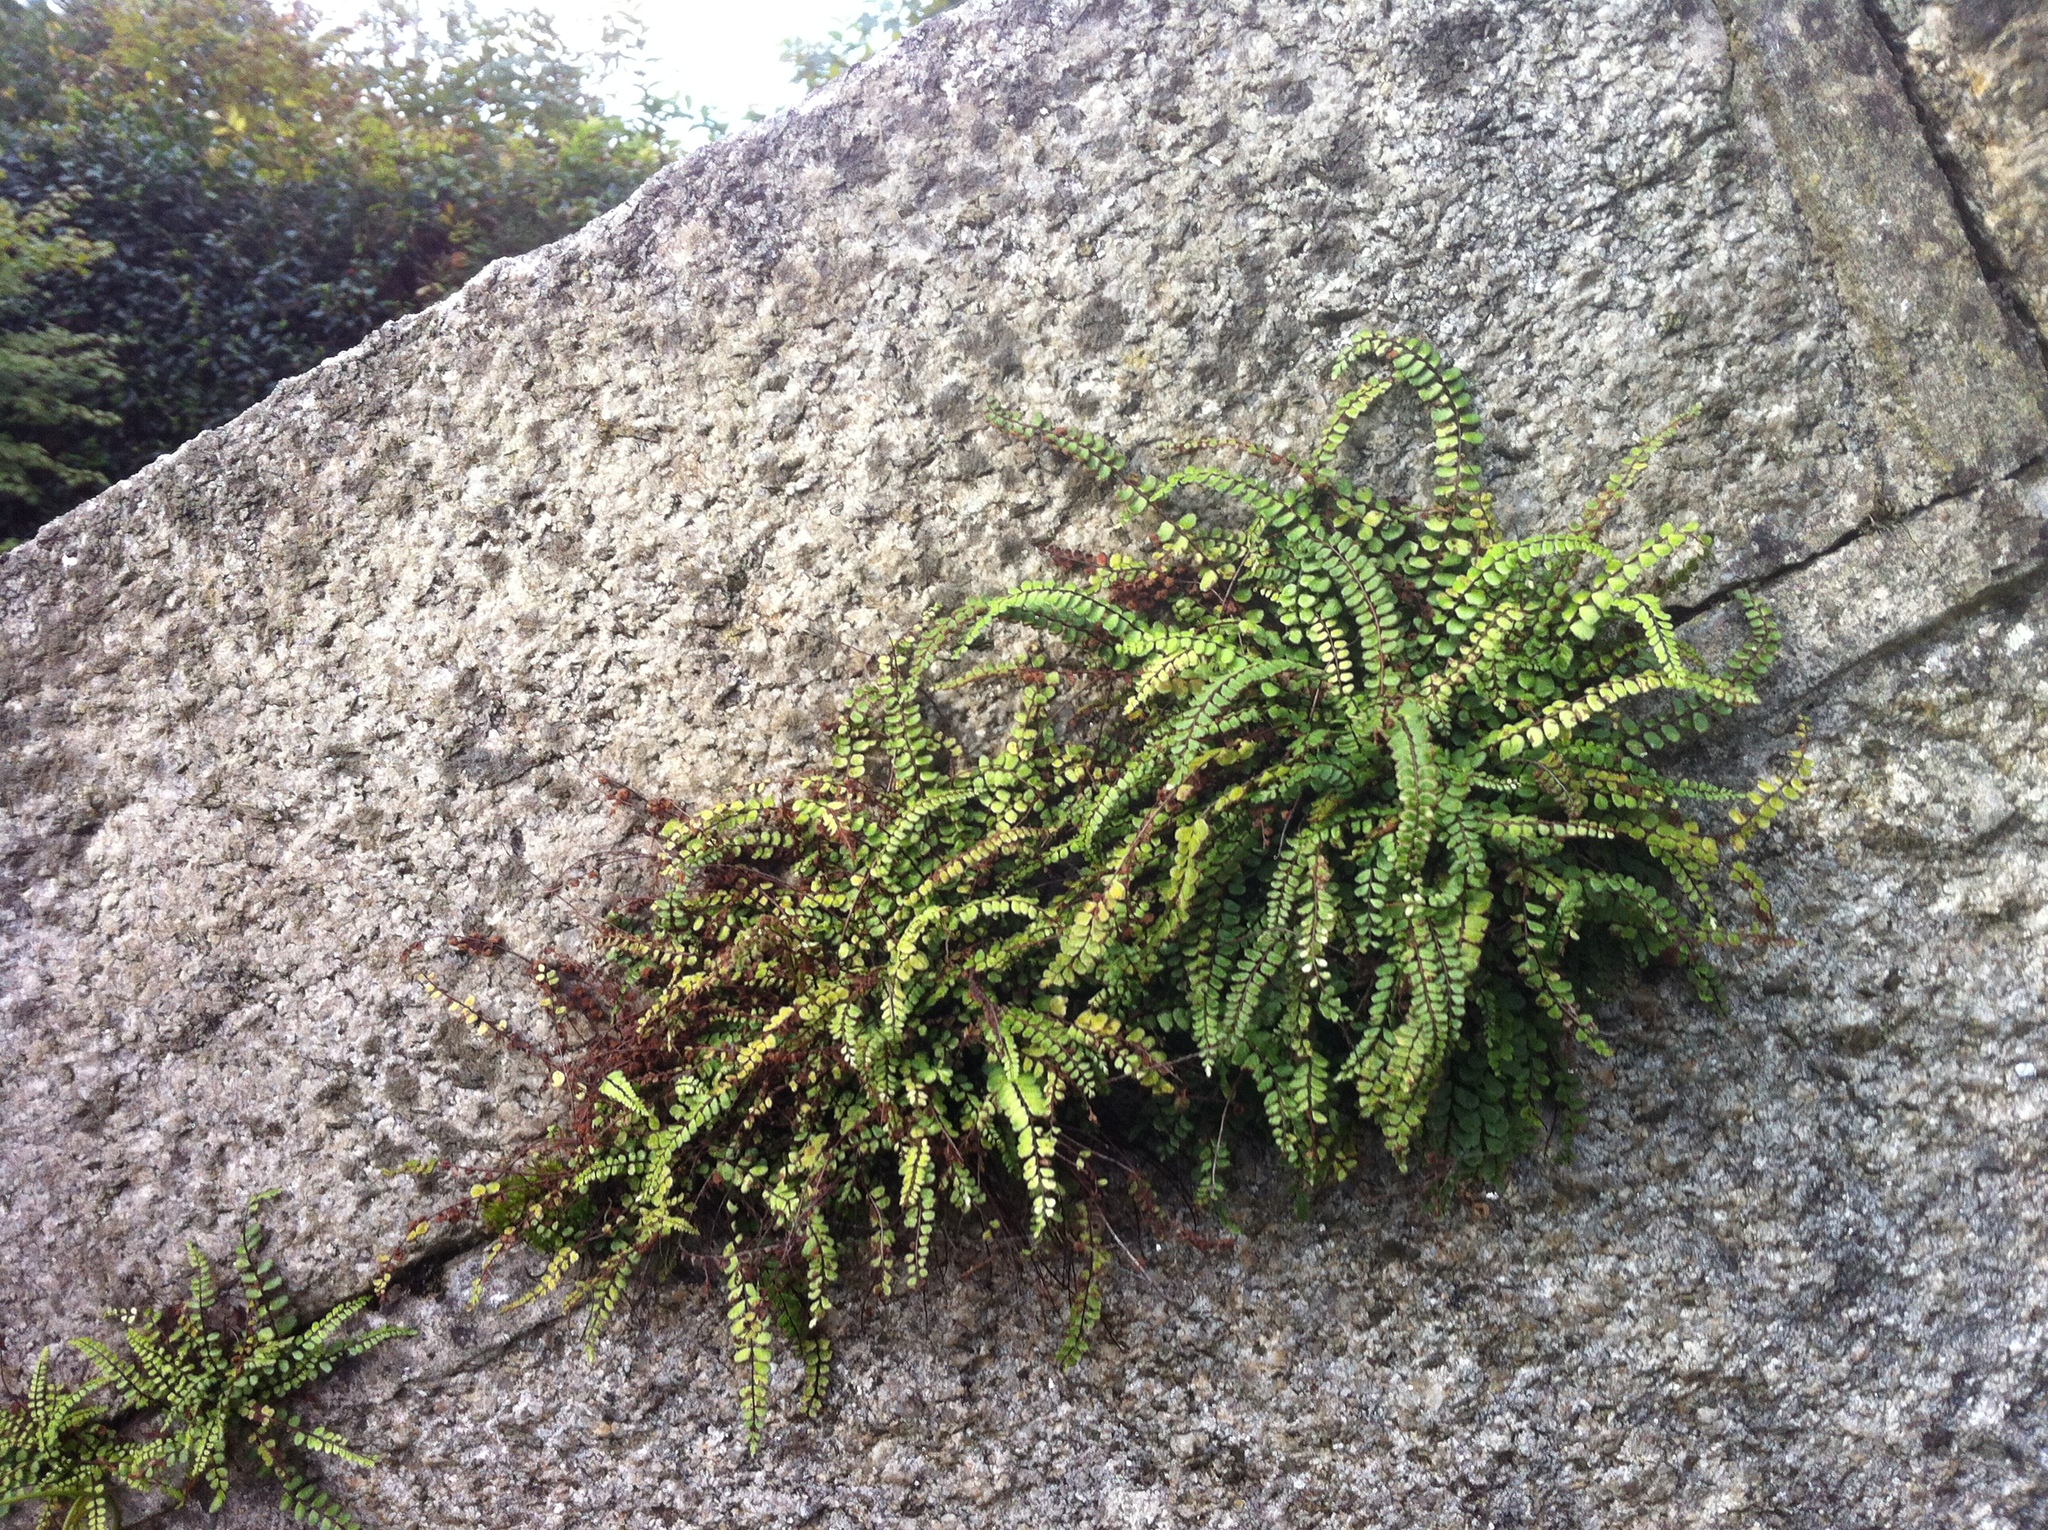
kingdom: Plantae
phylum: Tracheophyta
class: Polypodiopsida
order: Polypodiales
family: Aspleniaceae
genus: Asplenium
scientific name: Asplenium trichomanes
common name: Maidenhair spleenwort
